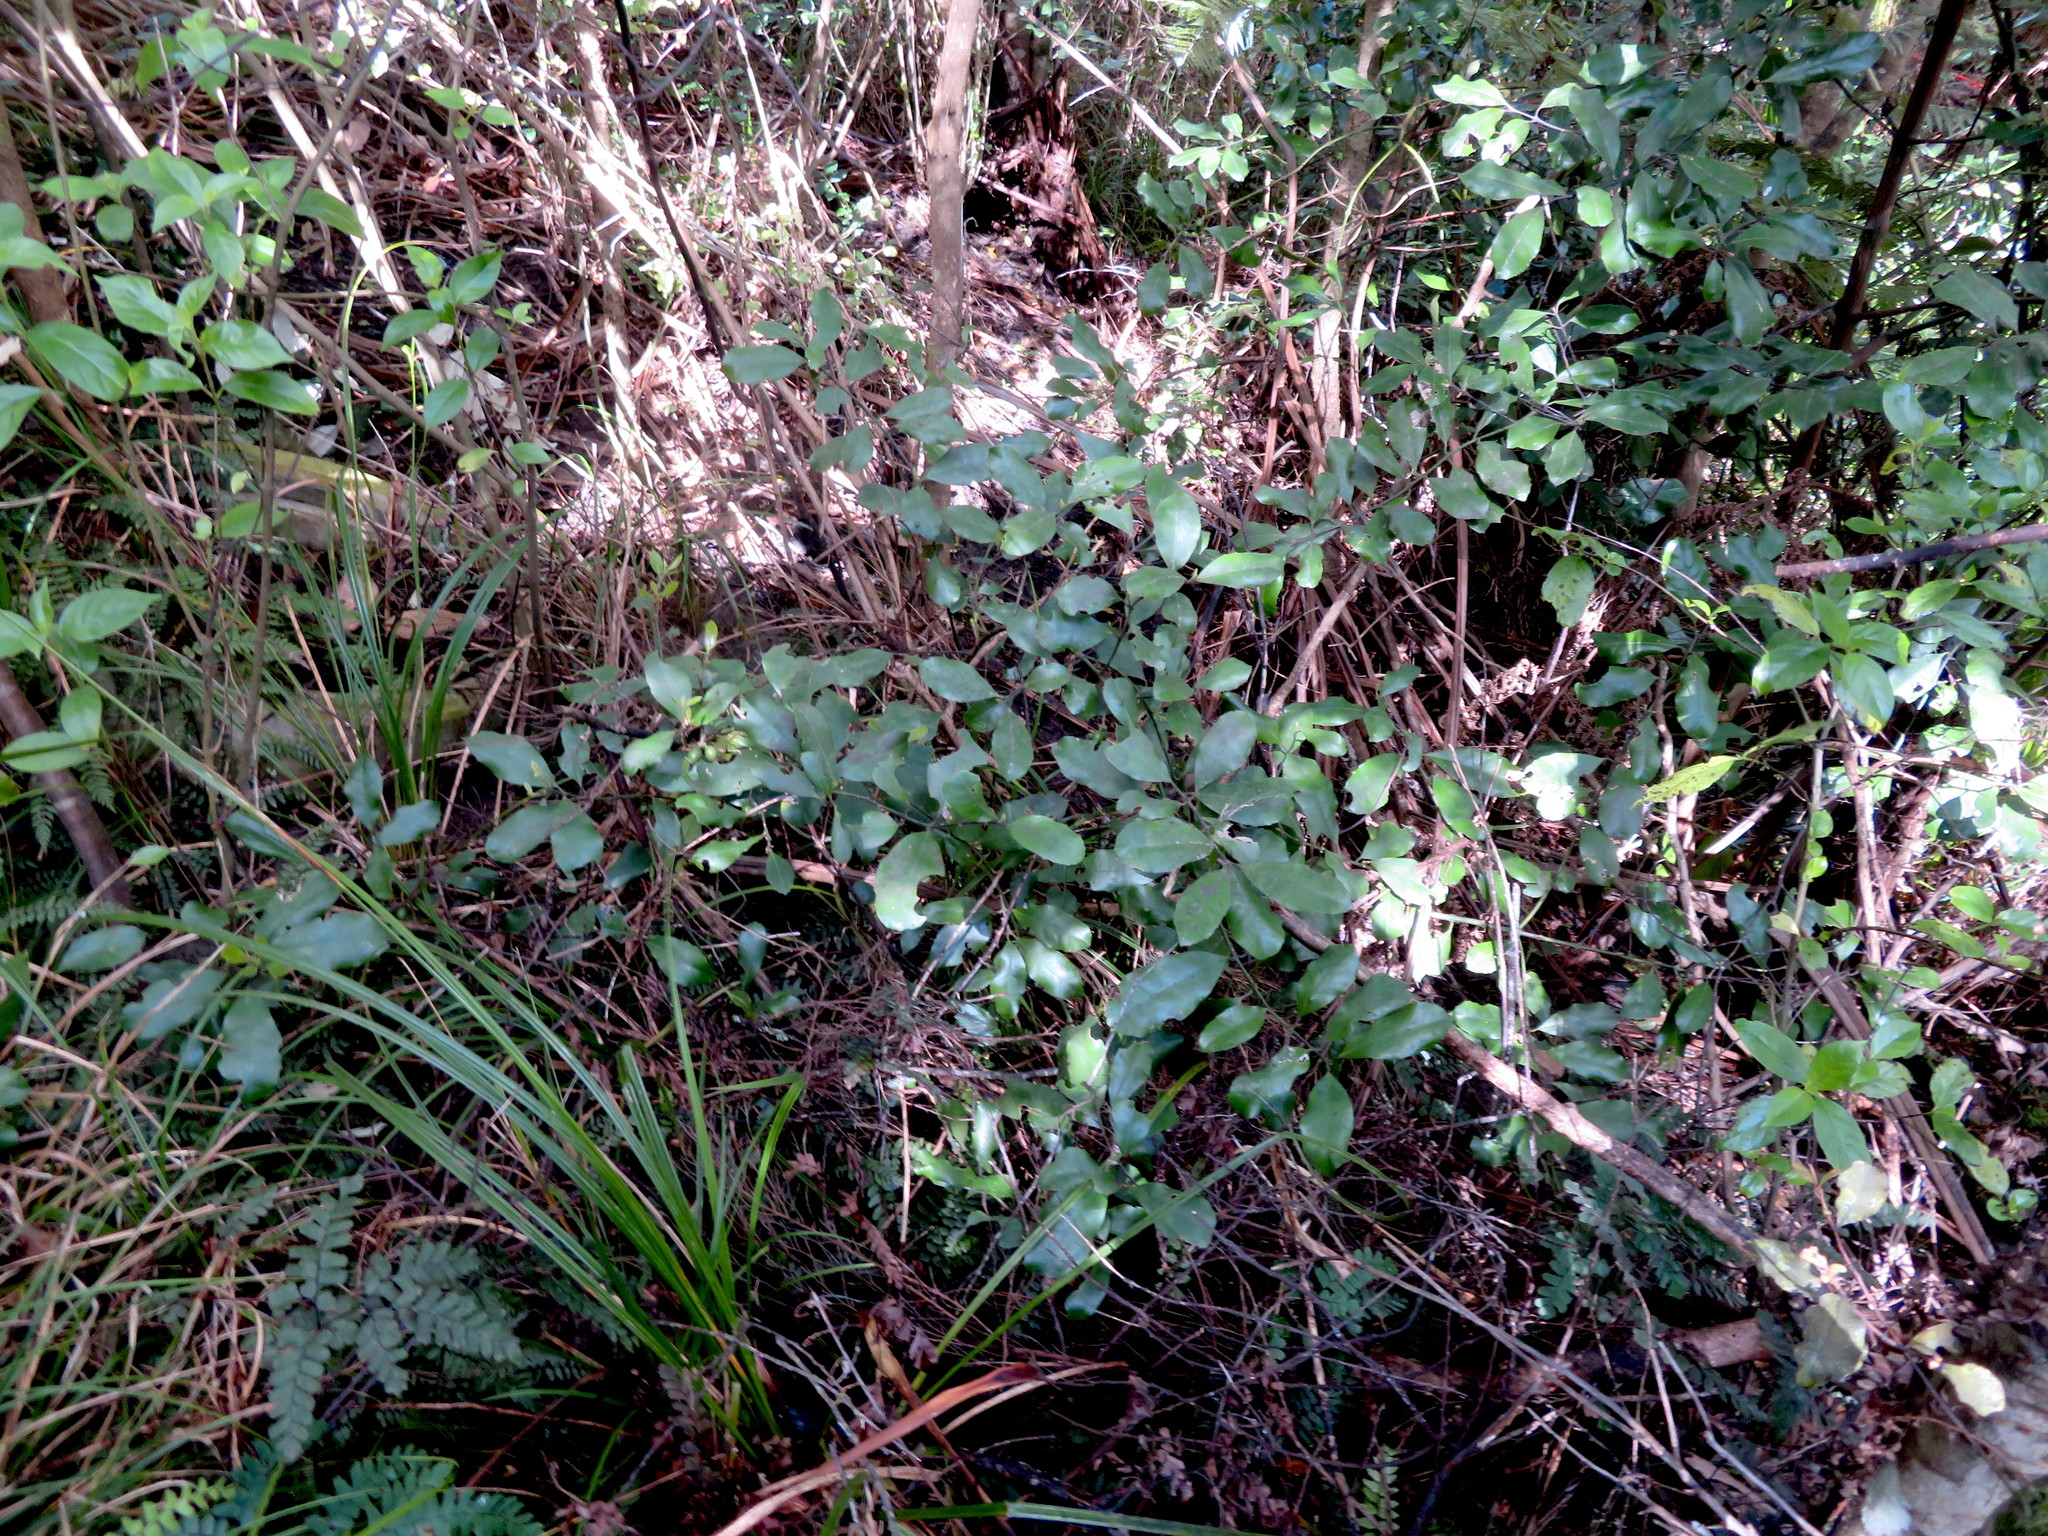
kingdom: Plantae
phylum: Tracheophyta
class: Magnoliopsida
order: Laurales
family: Monimiaceae
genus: Hedycarya
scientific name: Hedycarya arborea
